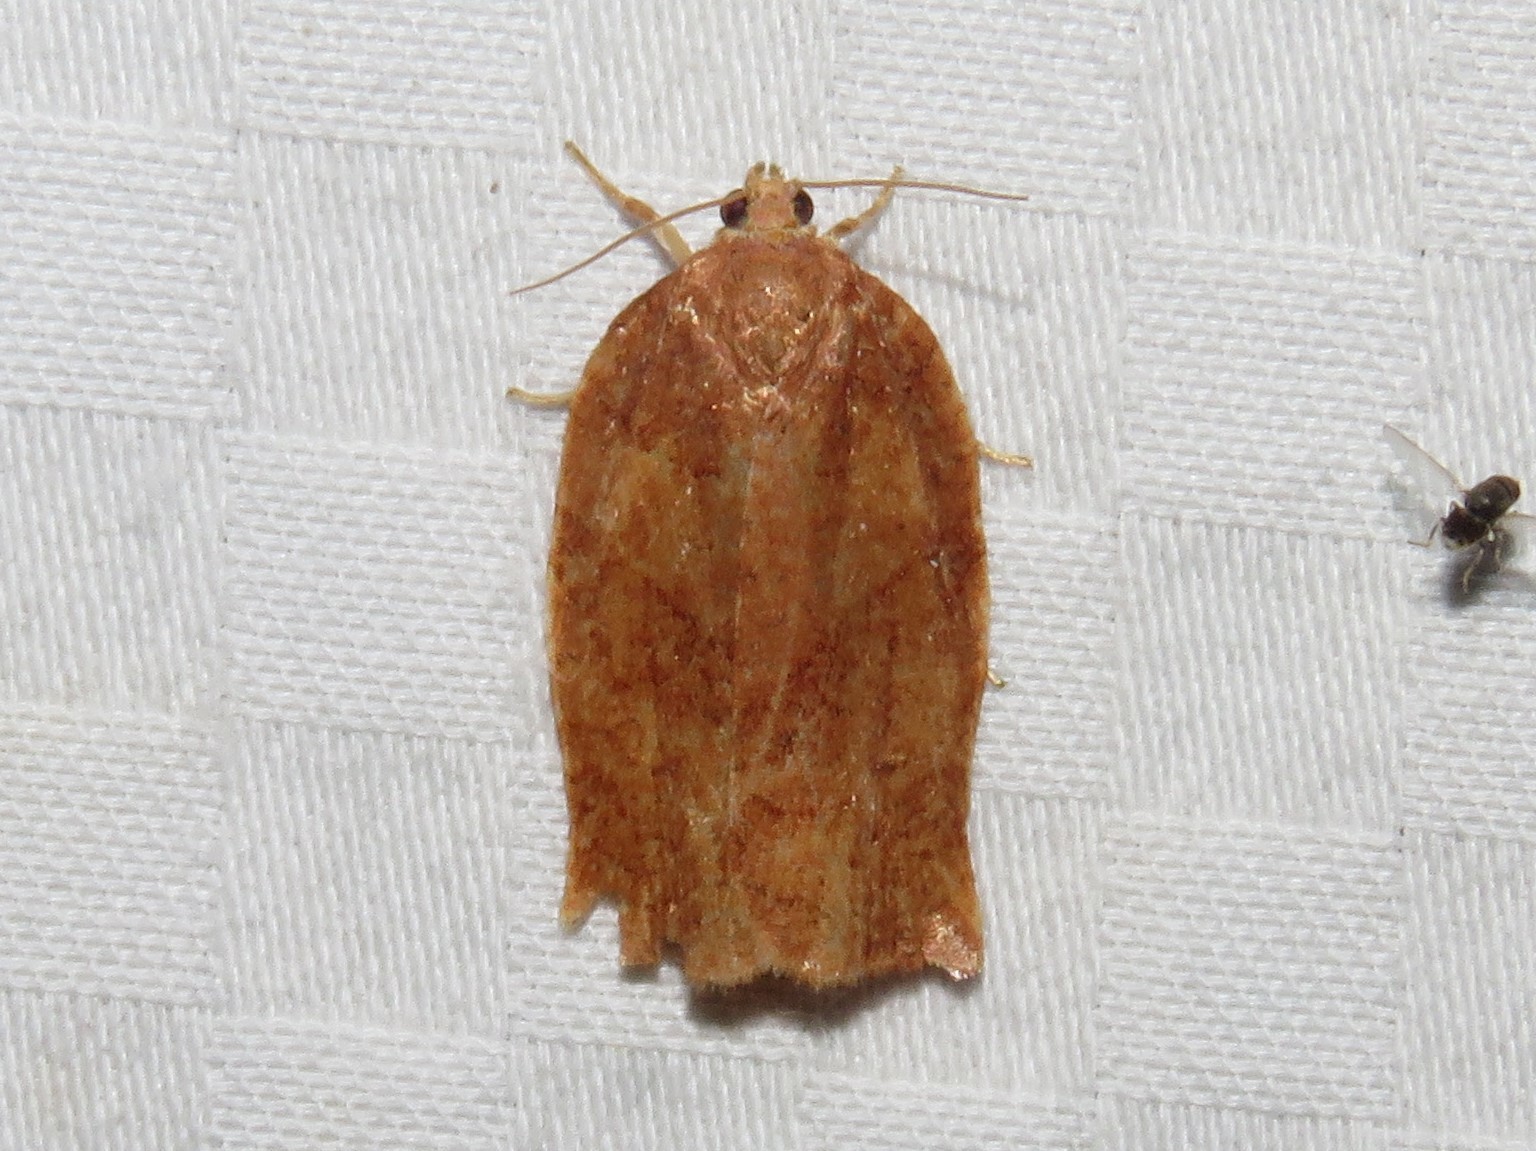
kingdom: Animalia
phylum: Arthropoda
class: Insecta
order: Lepidoptera
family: Tortricidae
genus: Choristoneura
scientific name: Choristoneura rosaceana
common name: Oblique-banded leafroller moth
